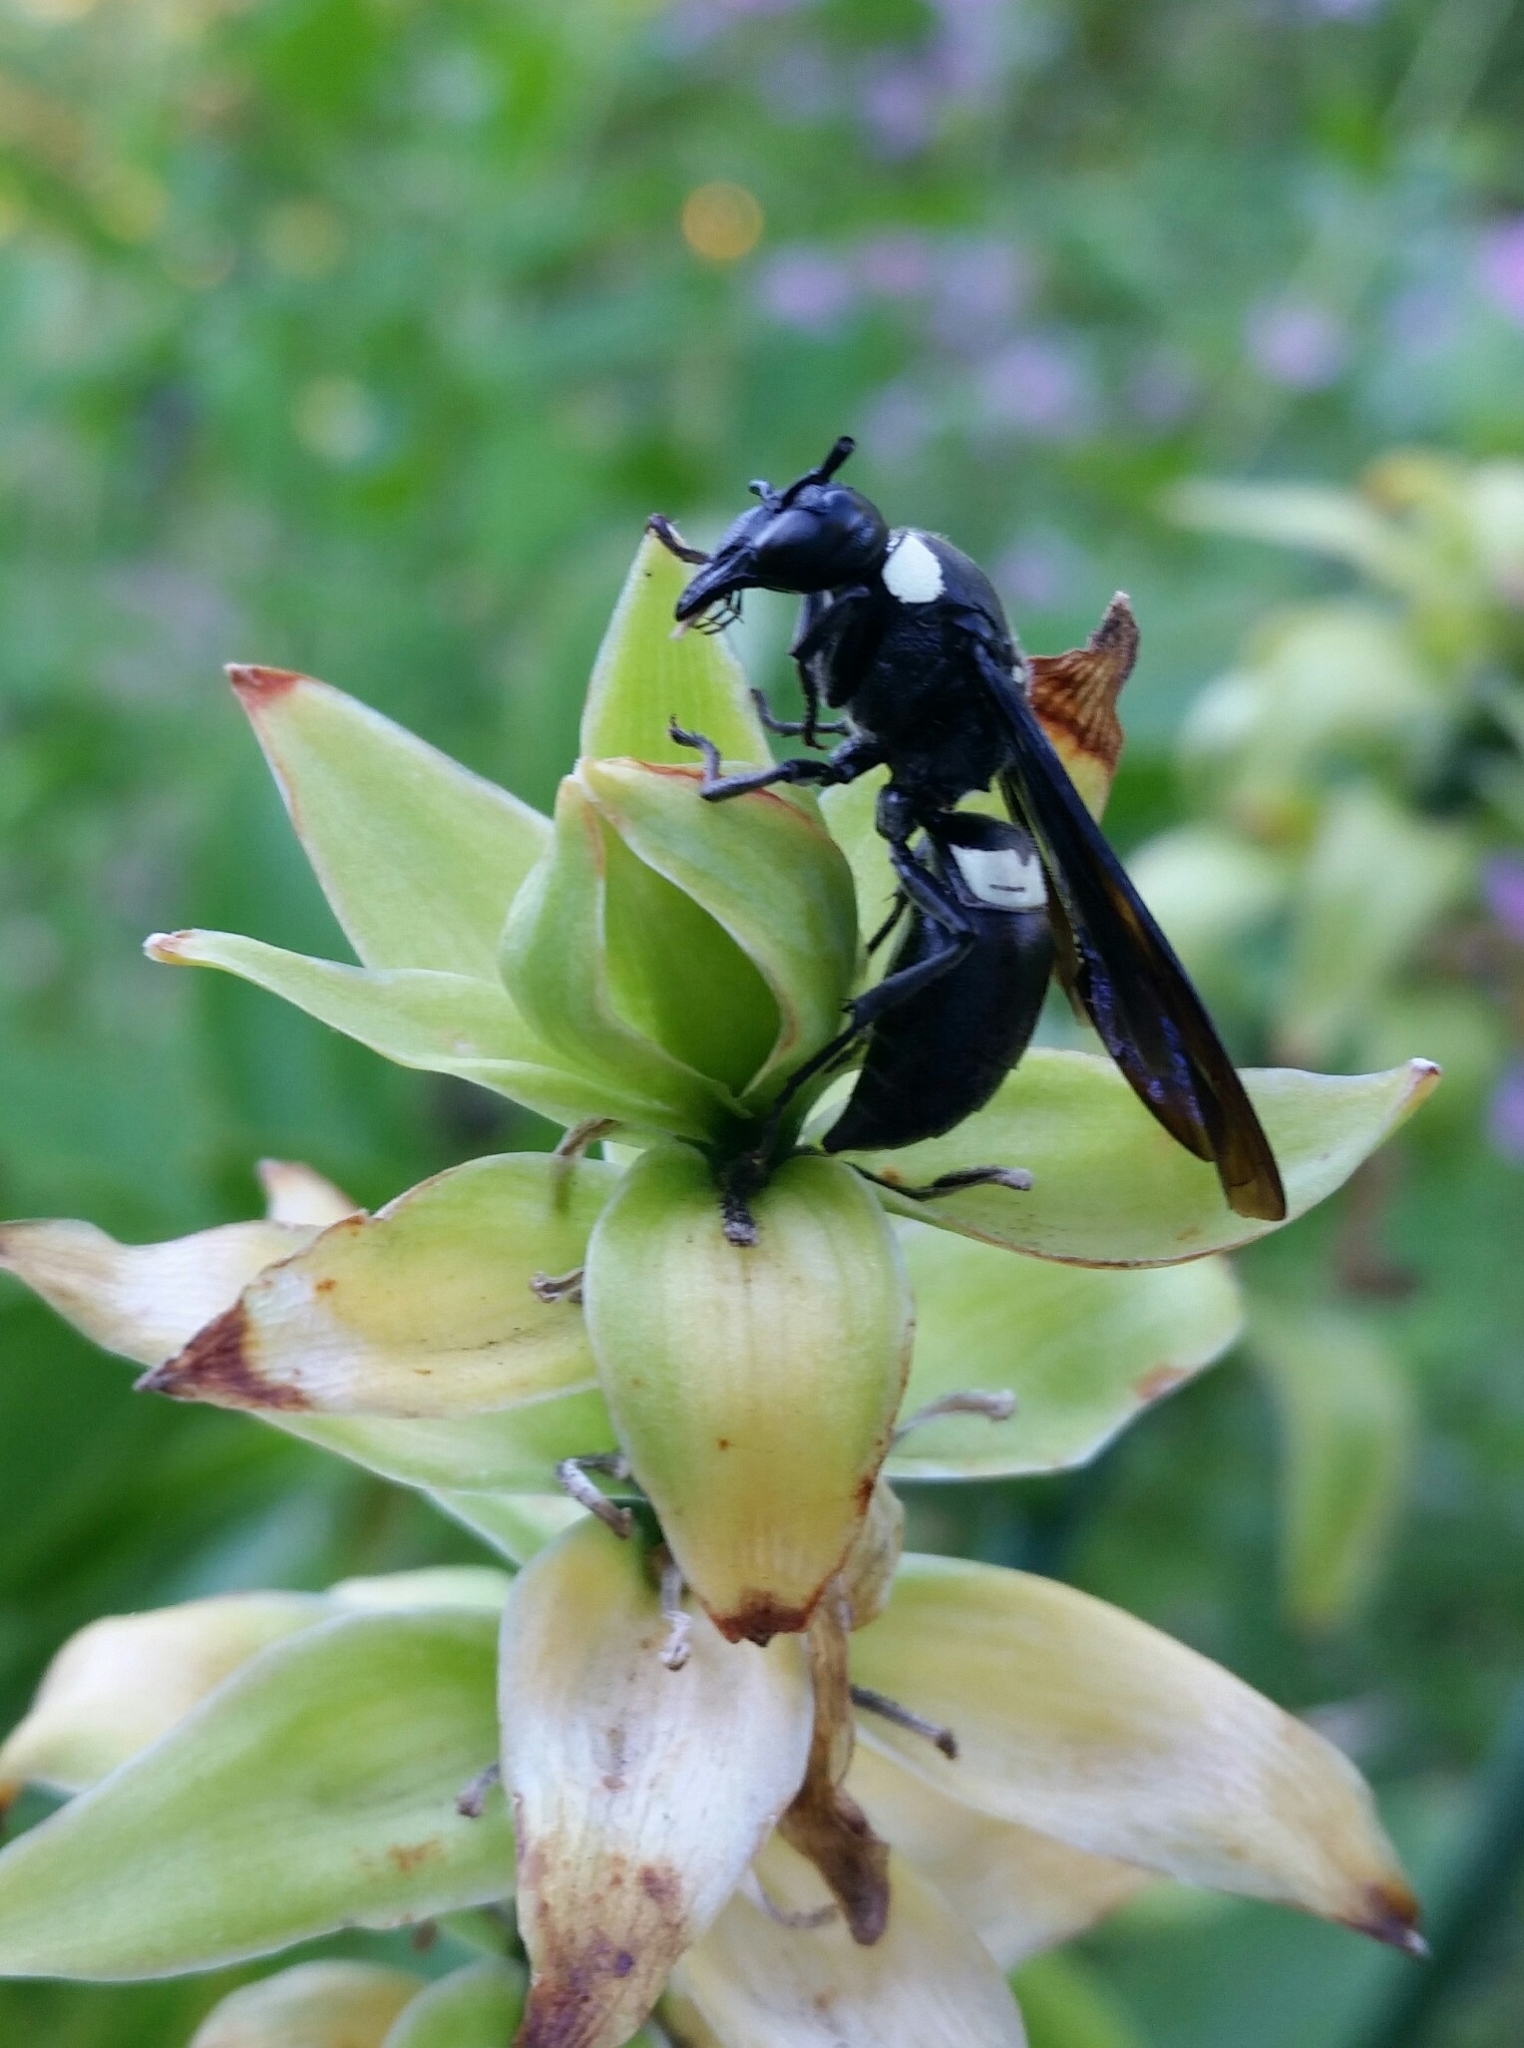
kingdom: Animalia
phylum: Arthropoda
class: Insecta
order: Hymenoptera
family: Eumenidae
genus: Monobia
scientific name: Monobia quadridens
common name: Four-toothed mason wasp
